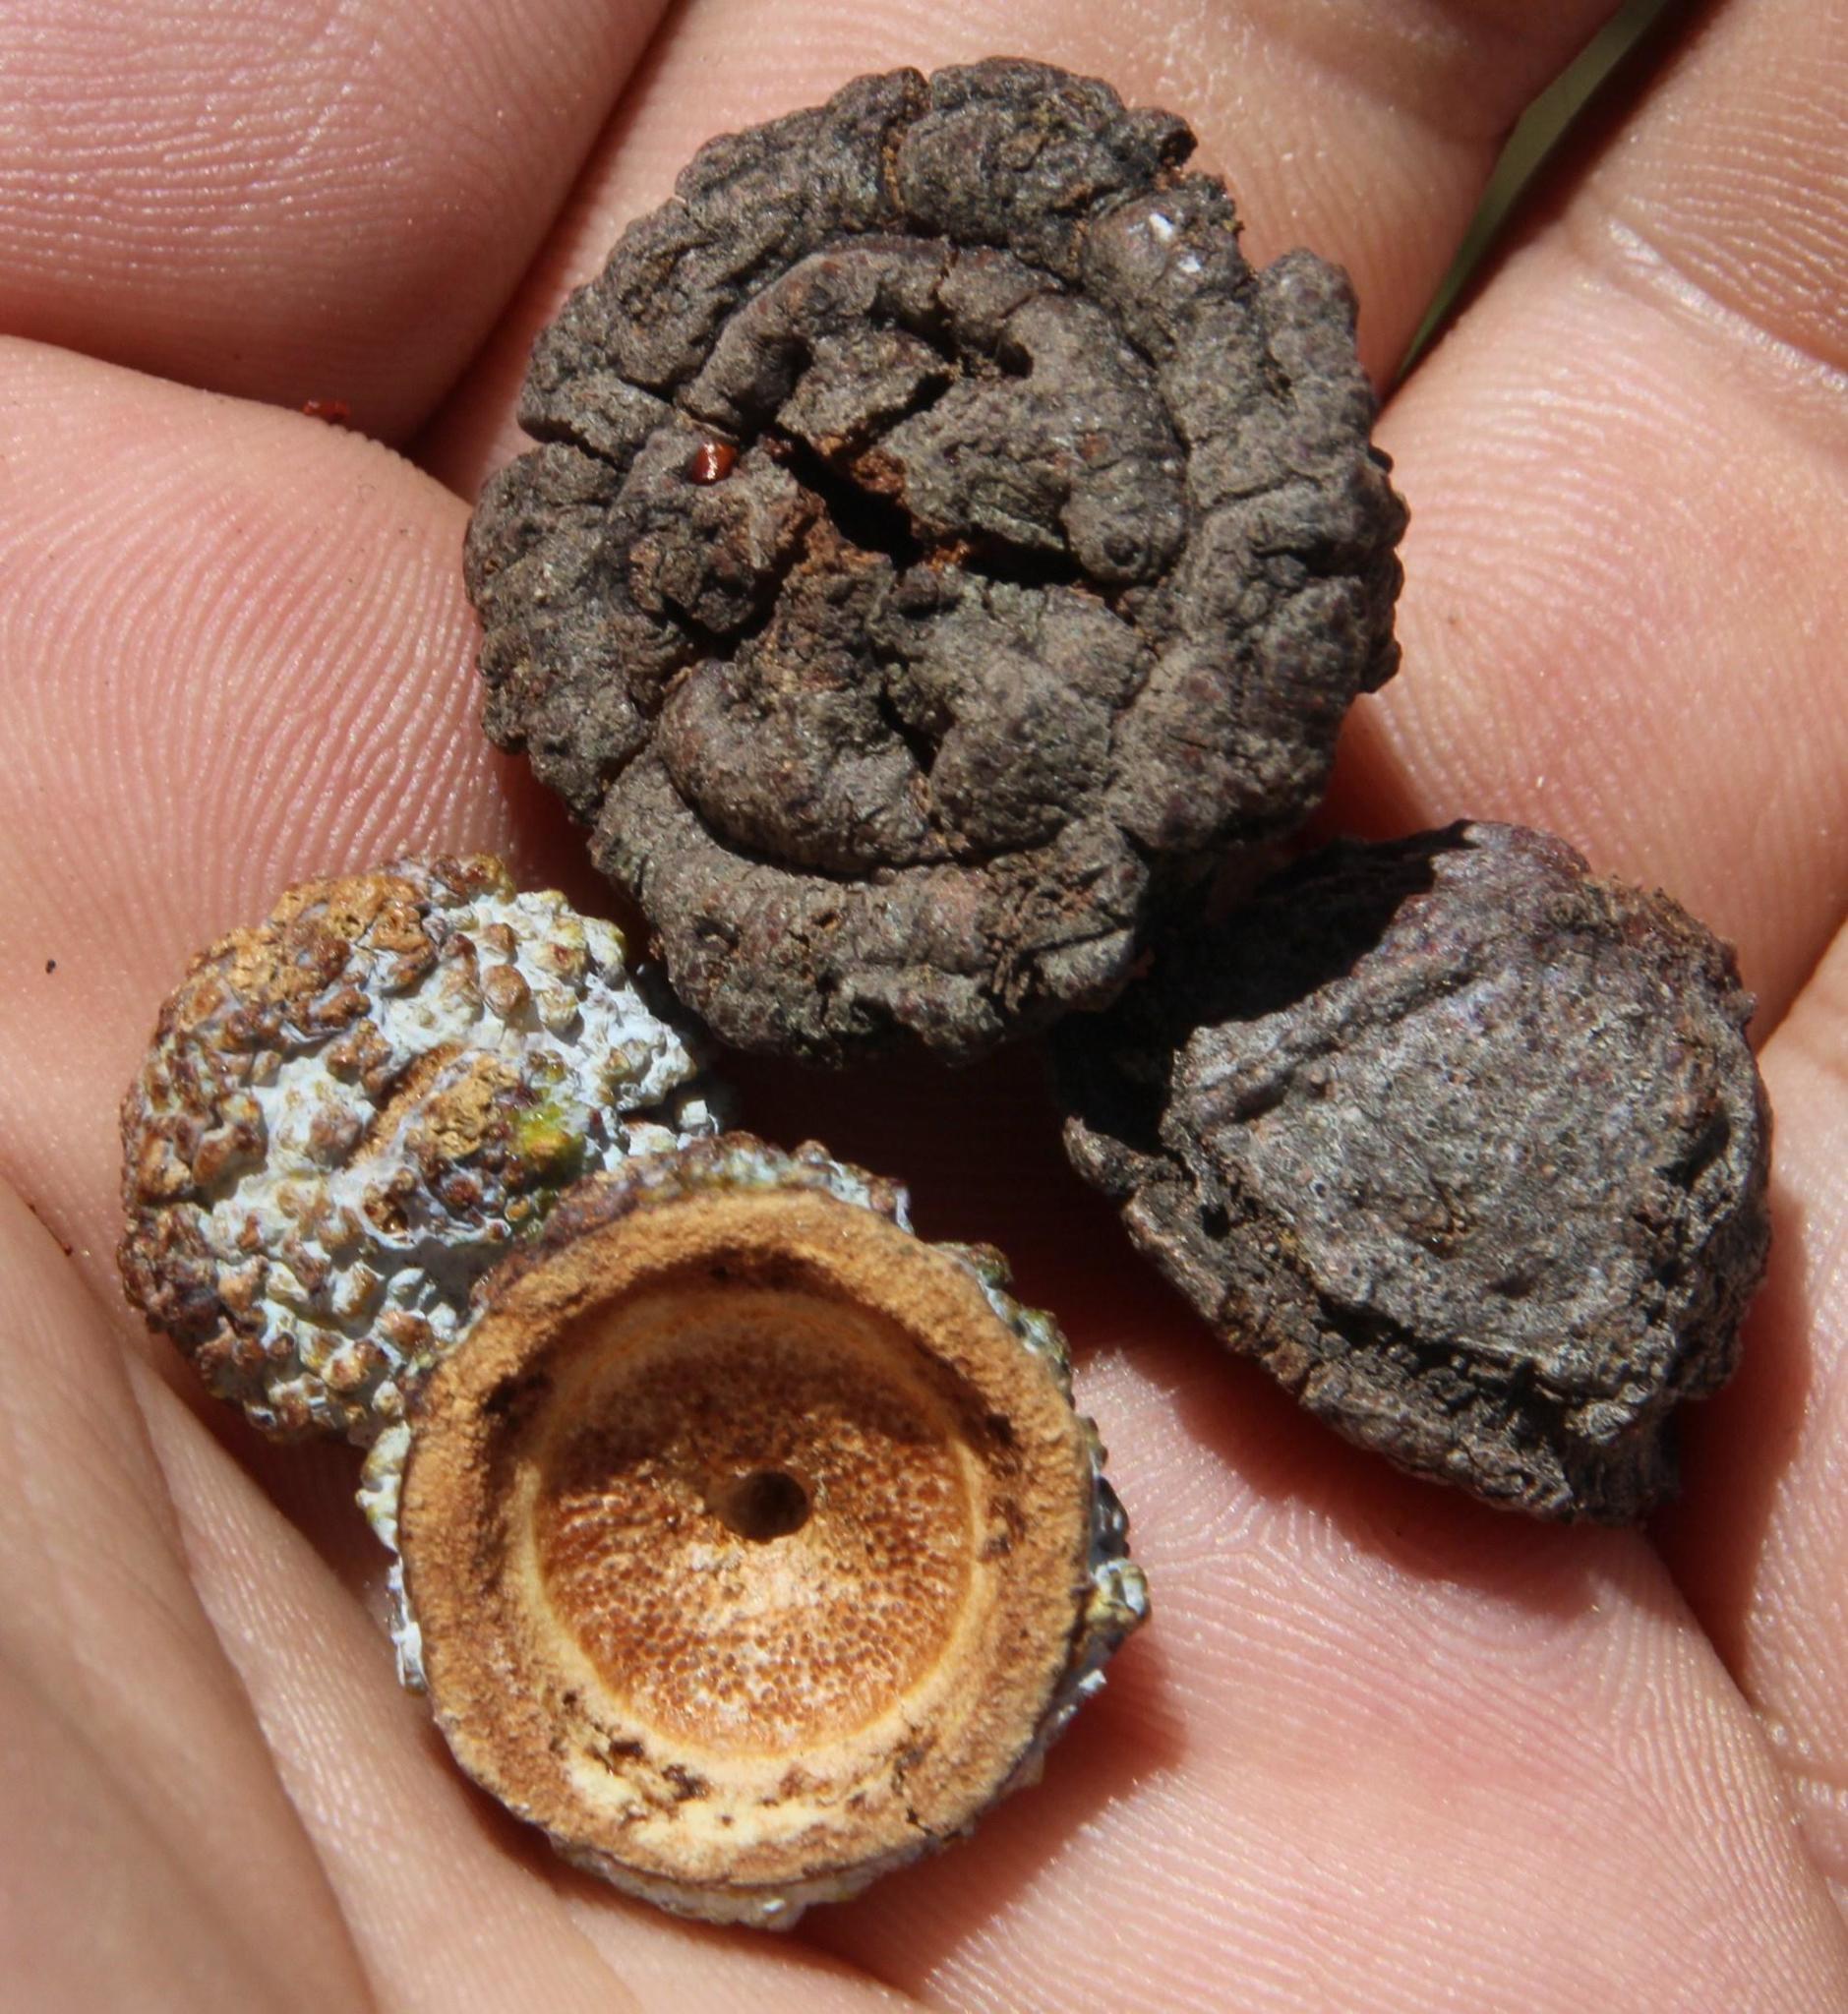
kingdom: Plantae
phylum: Tracheophyta
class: Magnoliopsida
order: Myrtales
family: Myrtaceae
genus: Eucalyptus
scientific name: Eucalyptus globulus
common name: Southern blue-gum
